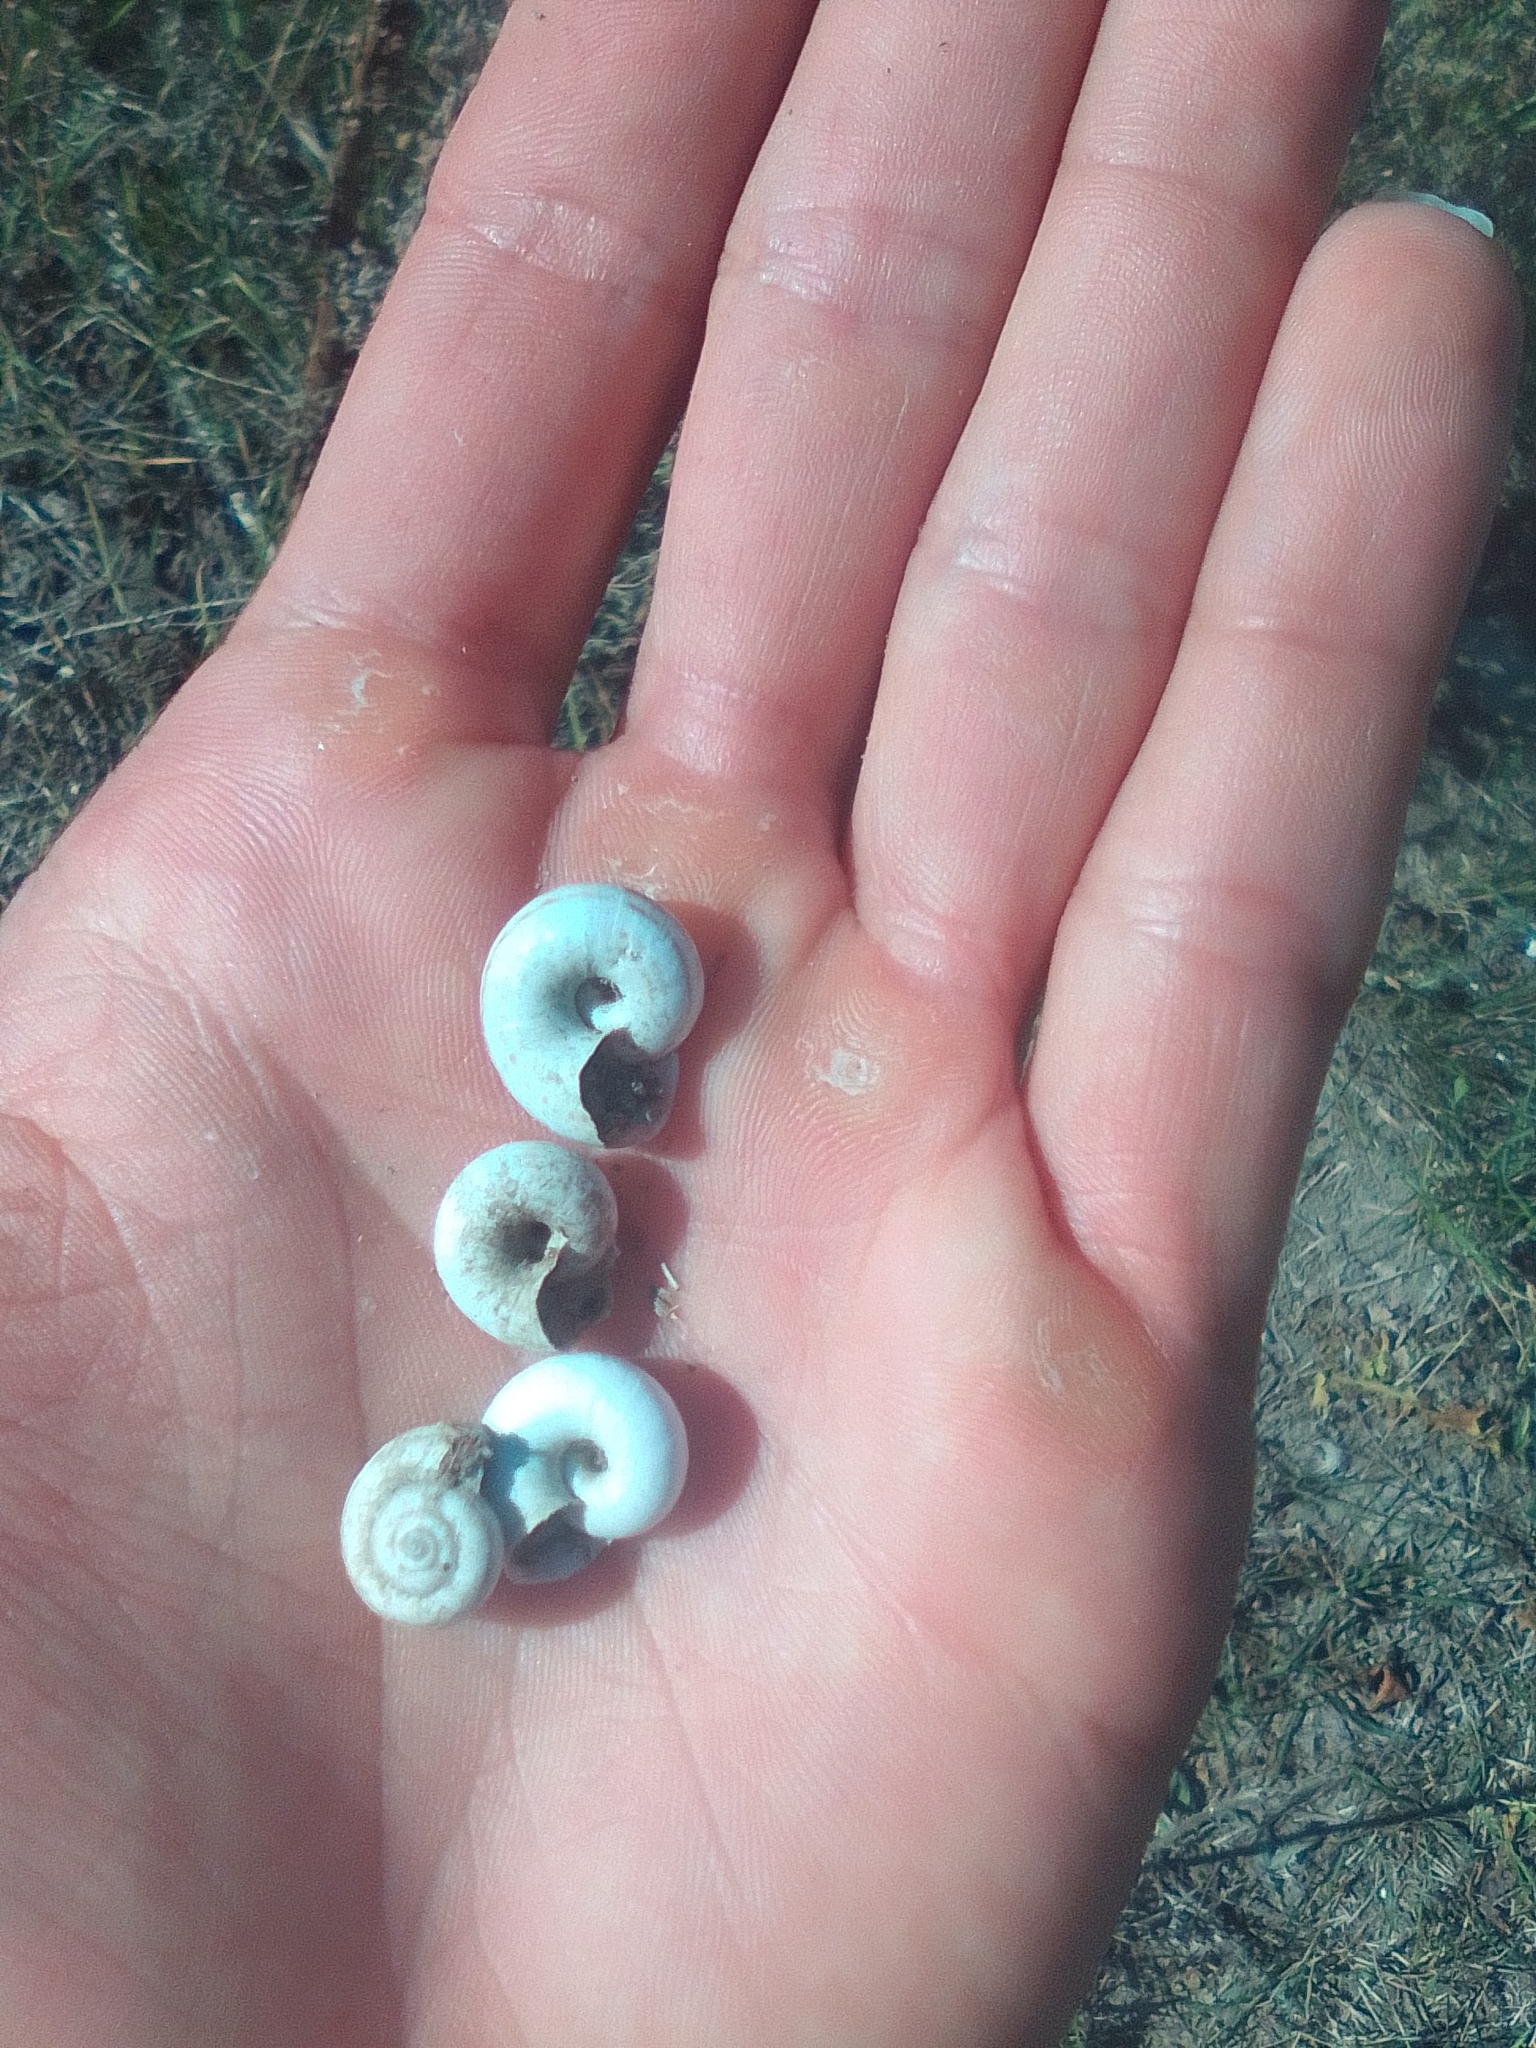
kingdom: Animalia
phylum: Mollusca
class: Gastropoda
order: Stylommatophora
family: Geomitridae
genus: Xeropicta
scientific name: Xeropicta derbentina
